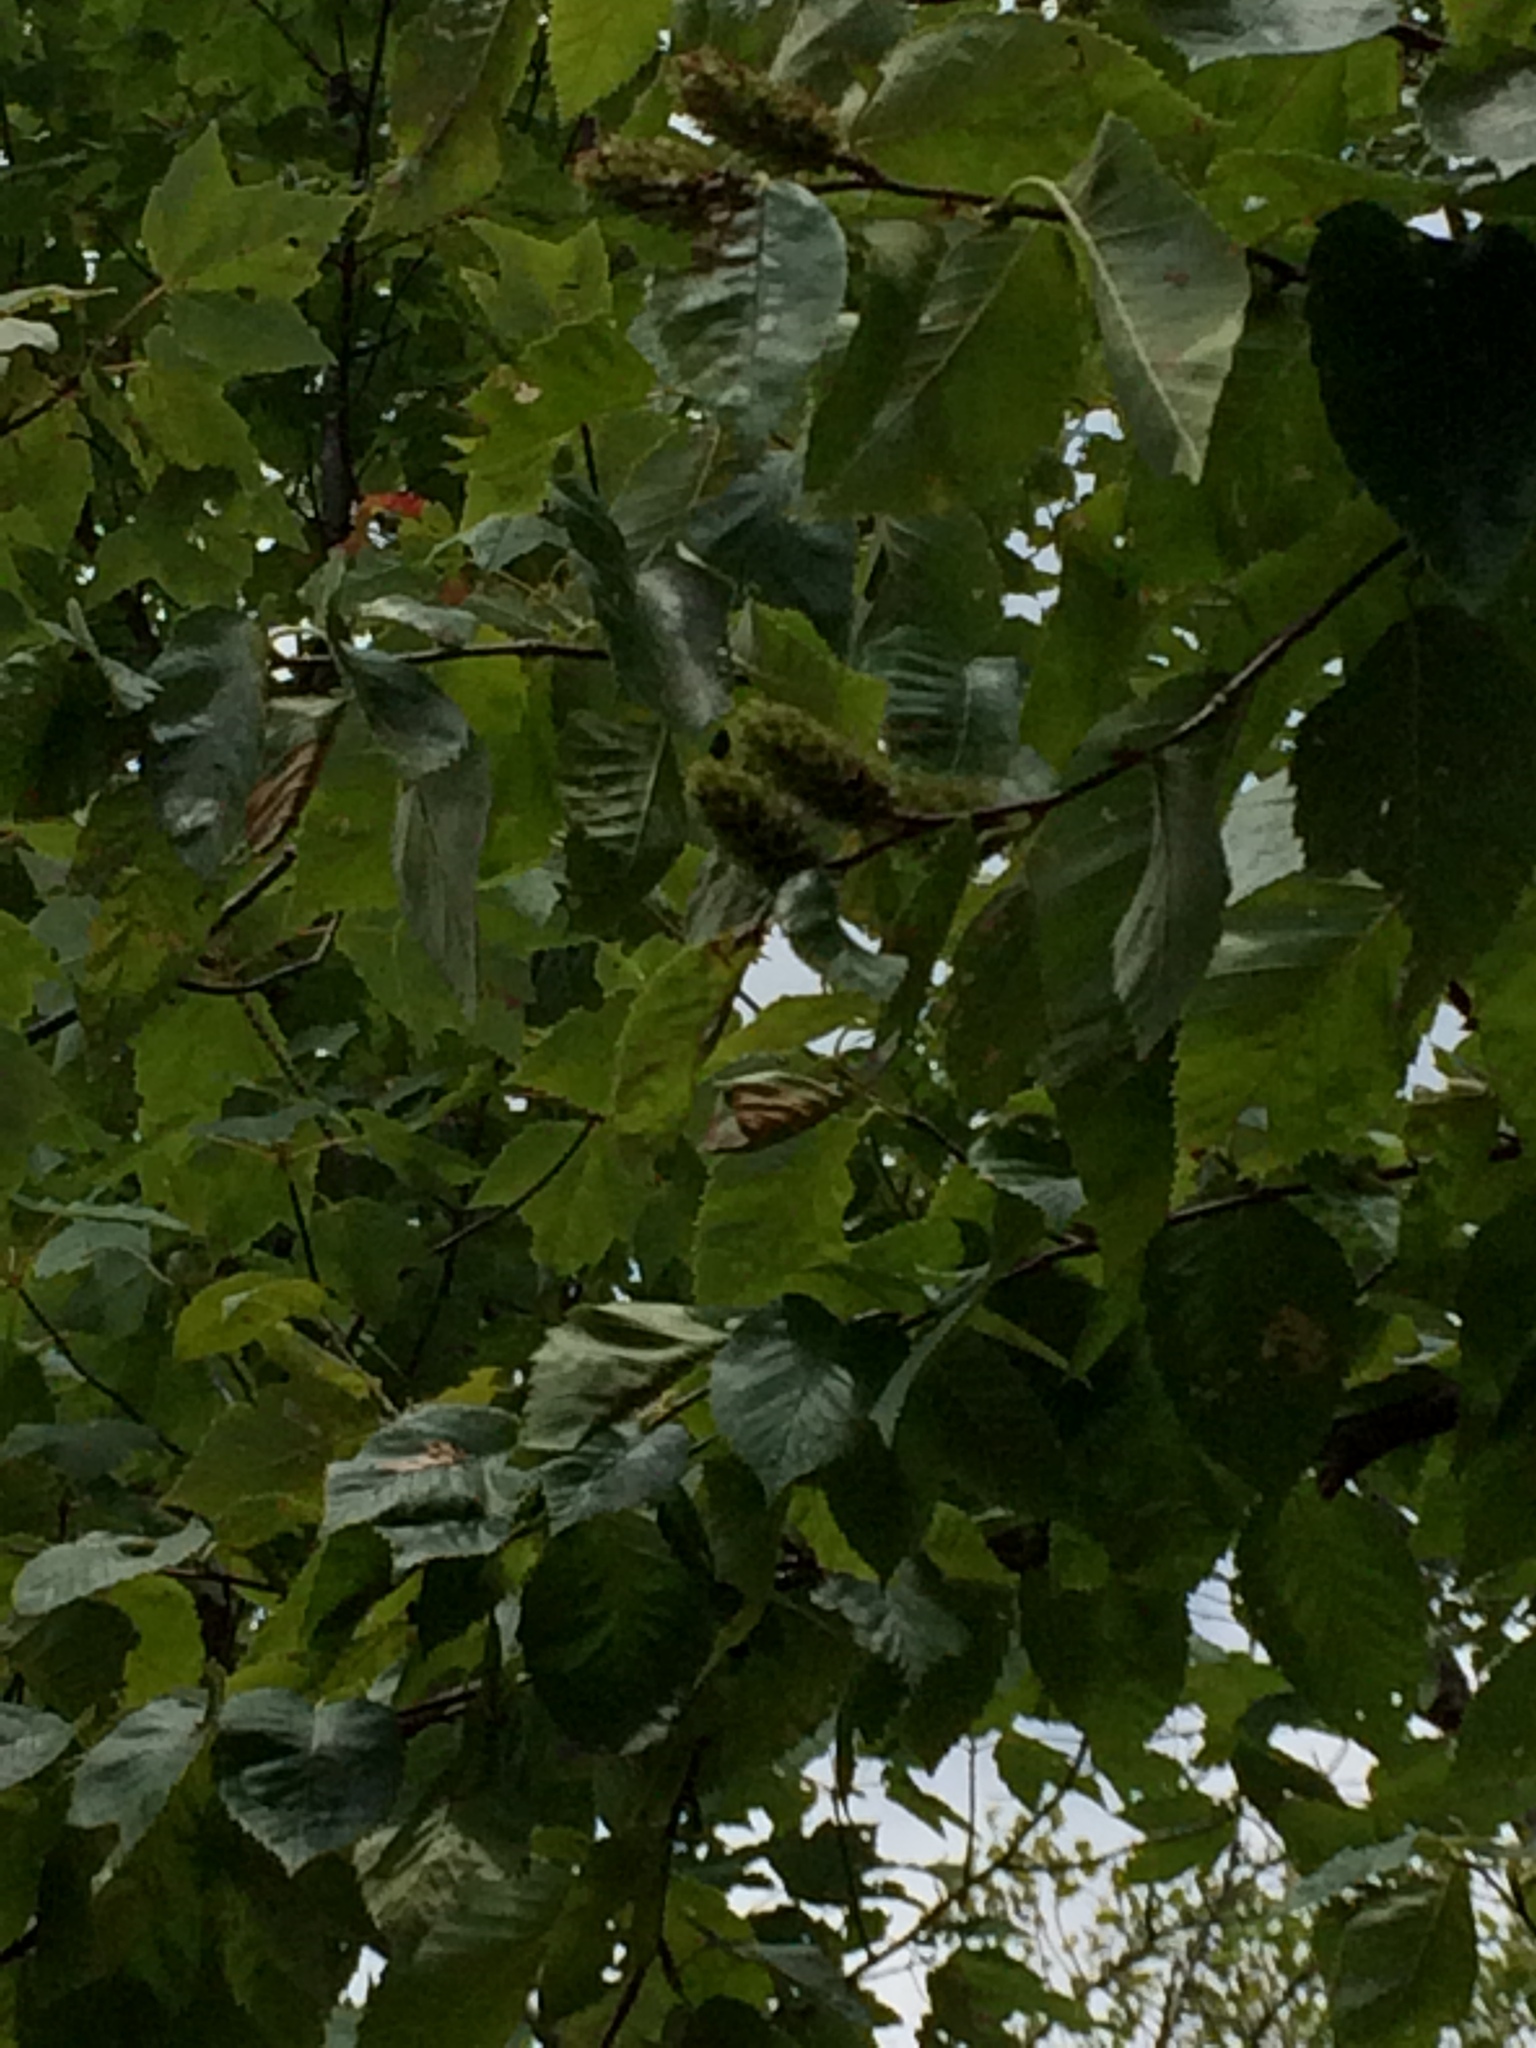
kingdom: Plantae
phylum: Tracheophyta
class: Magnoliopsida
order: Fagales
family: Betulaceae
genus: Betula
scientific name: Betula alleghaniensis
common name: Yellow birch
